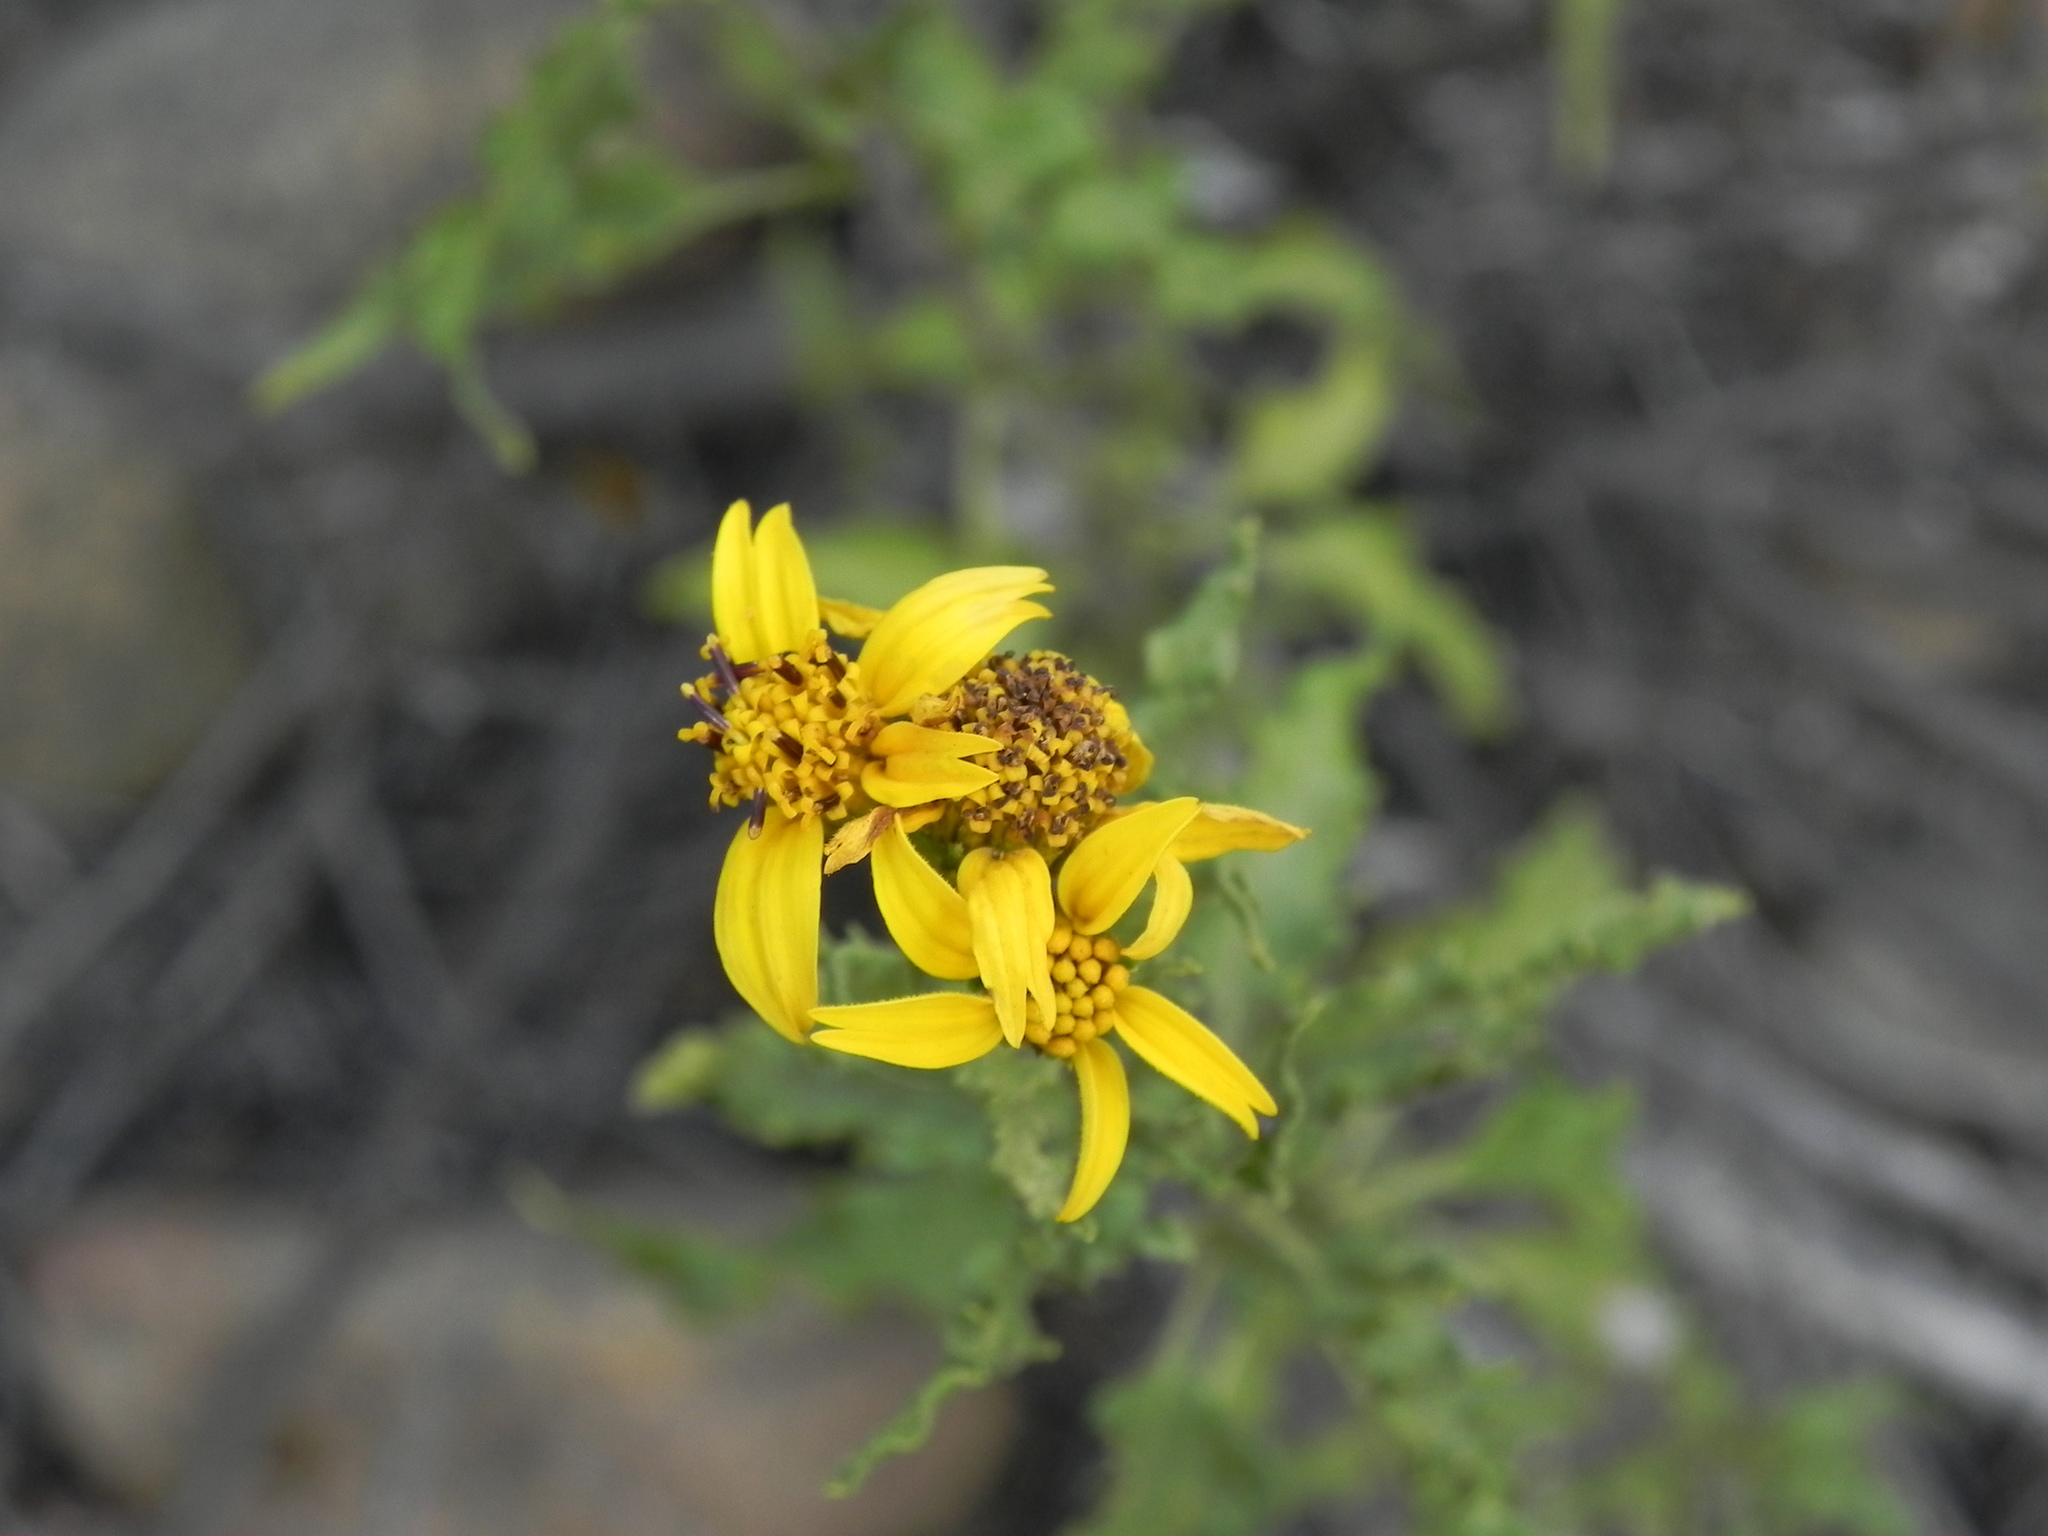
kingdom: Plantae
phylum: Tracheophyta
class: Magnoliopsida
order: Asterales
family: Asteraceae
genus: Bahiopsis
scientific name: Bahiopsis laciniata
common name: San diego county viguiera
